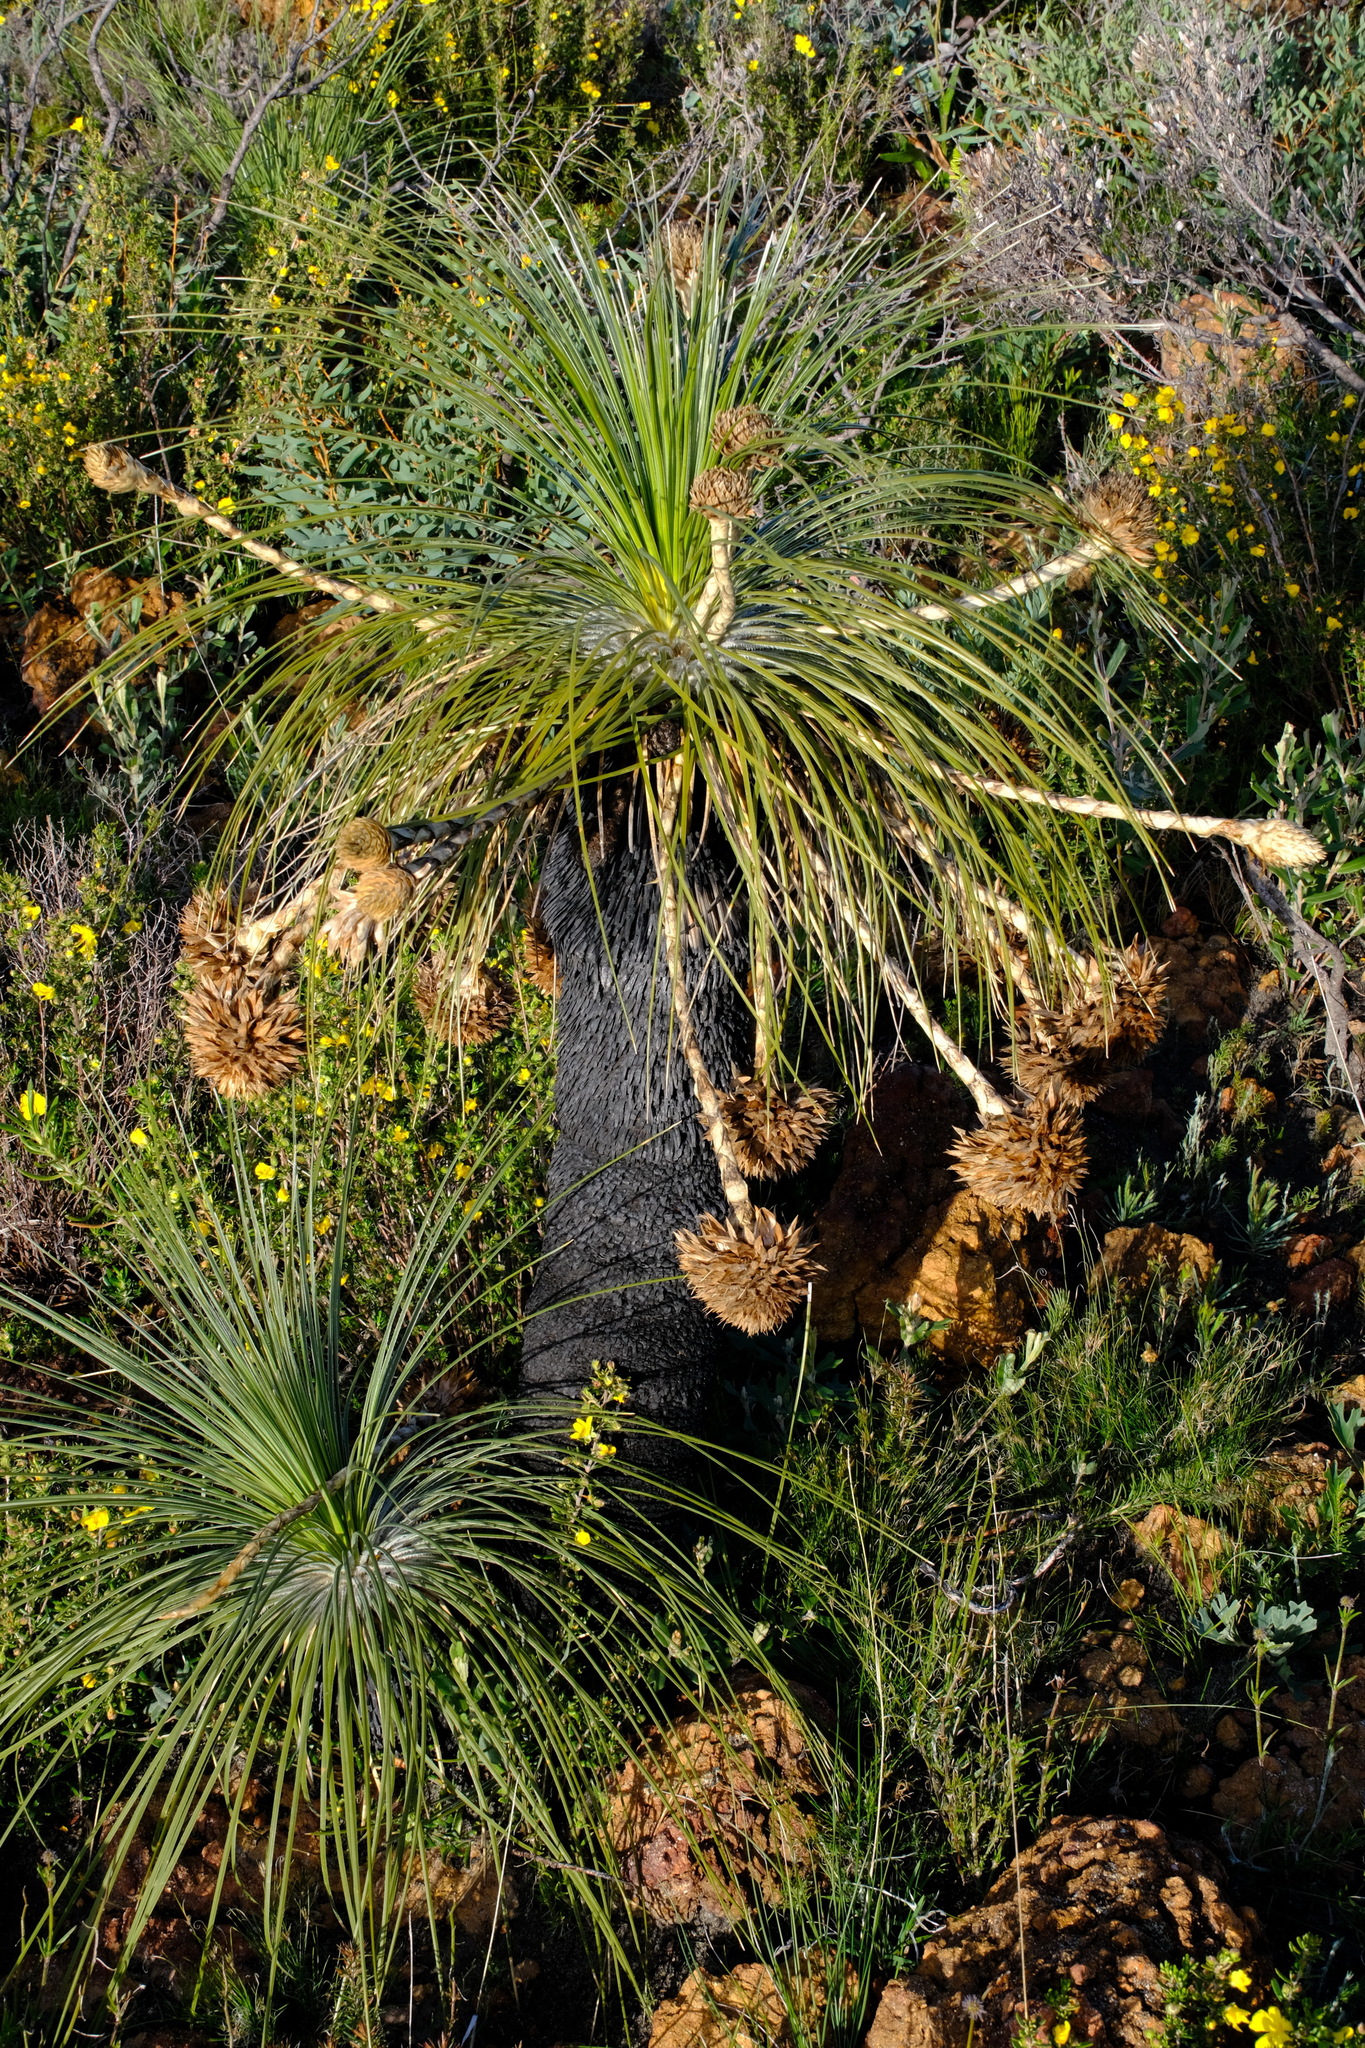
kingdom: Plantae
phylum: Tracheophyta
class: Liliopsida
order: Arecales
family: Dasypogonaceae
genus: Kingia
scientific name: Kingia australis
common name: Black gin
